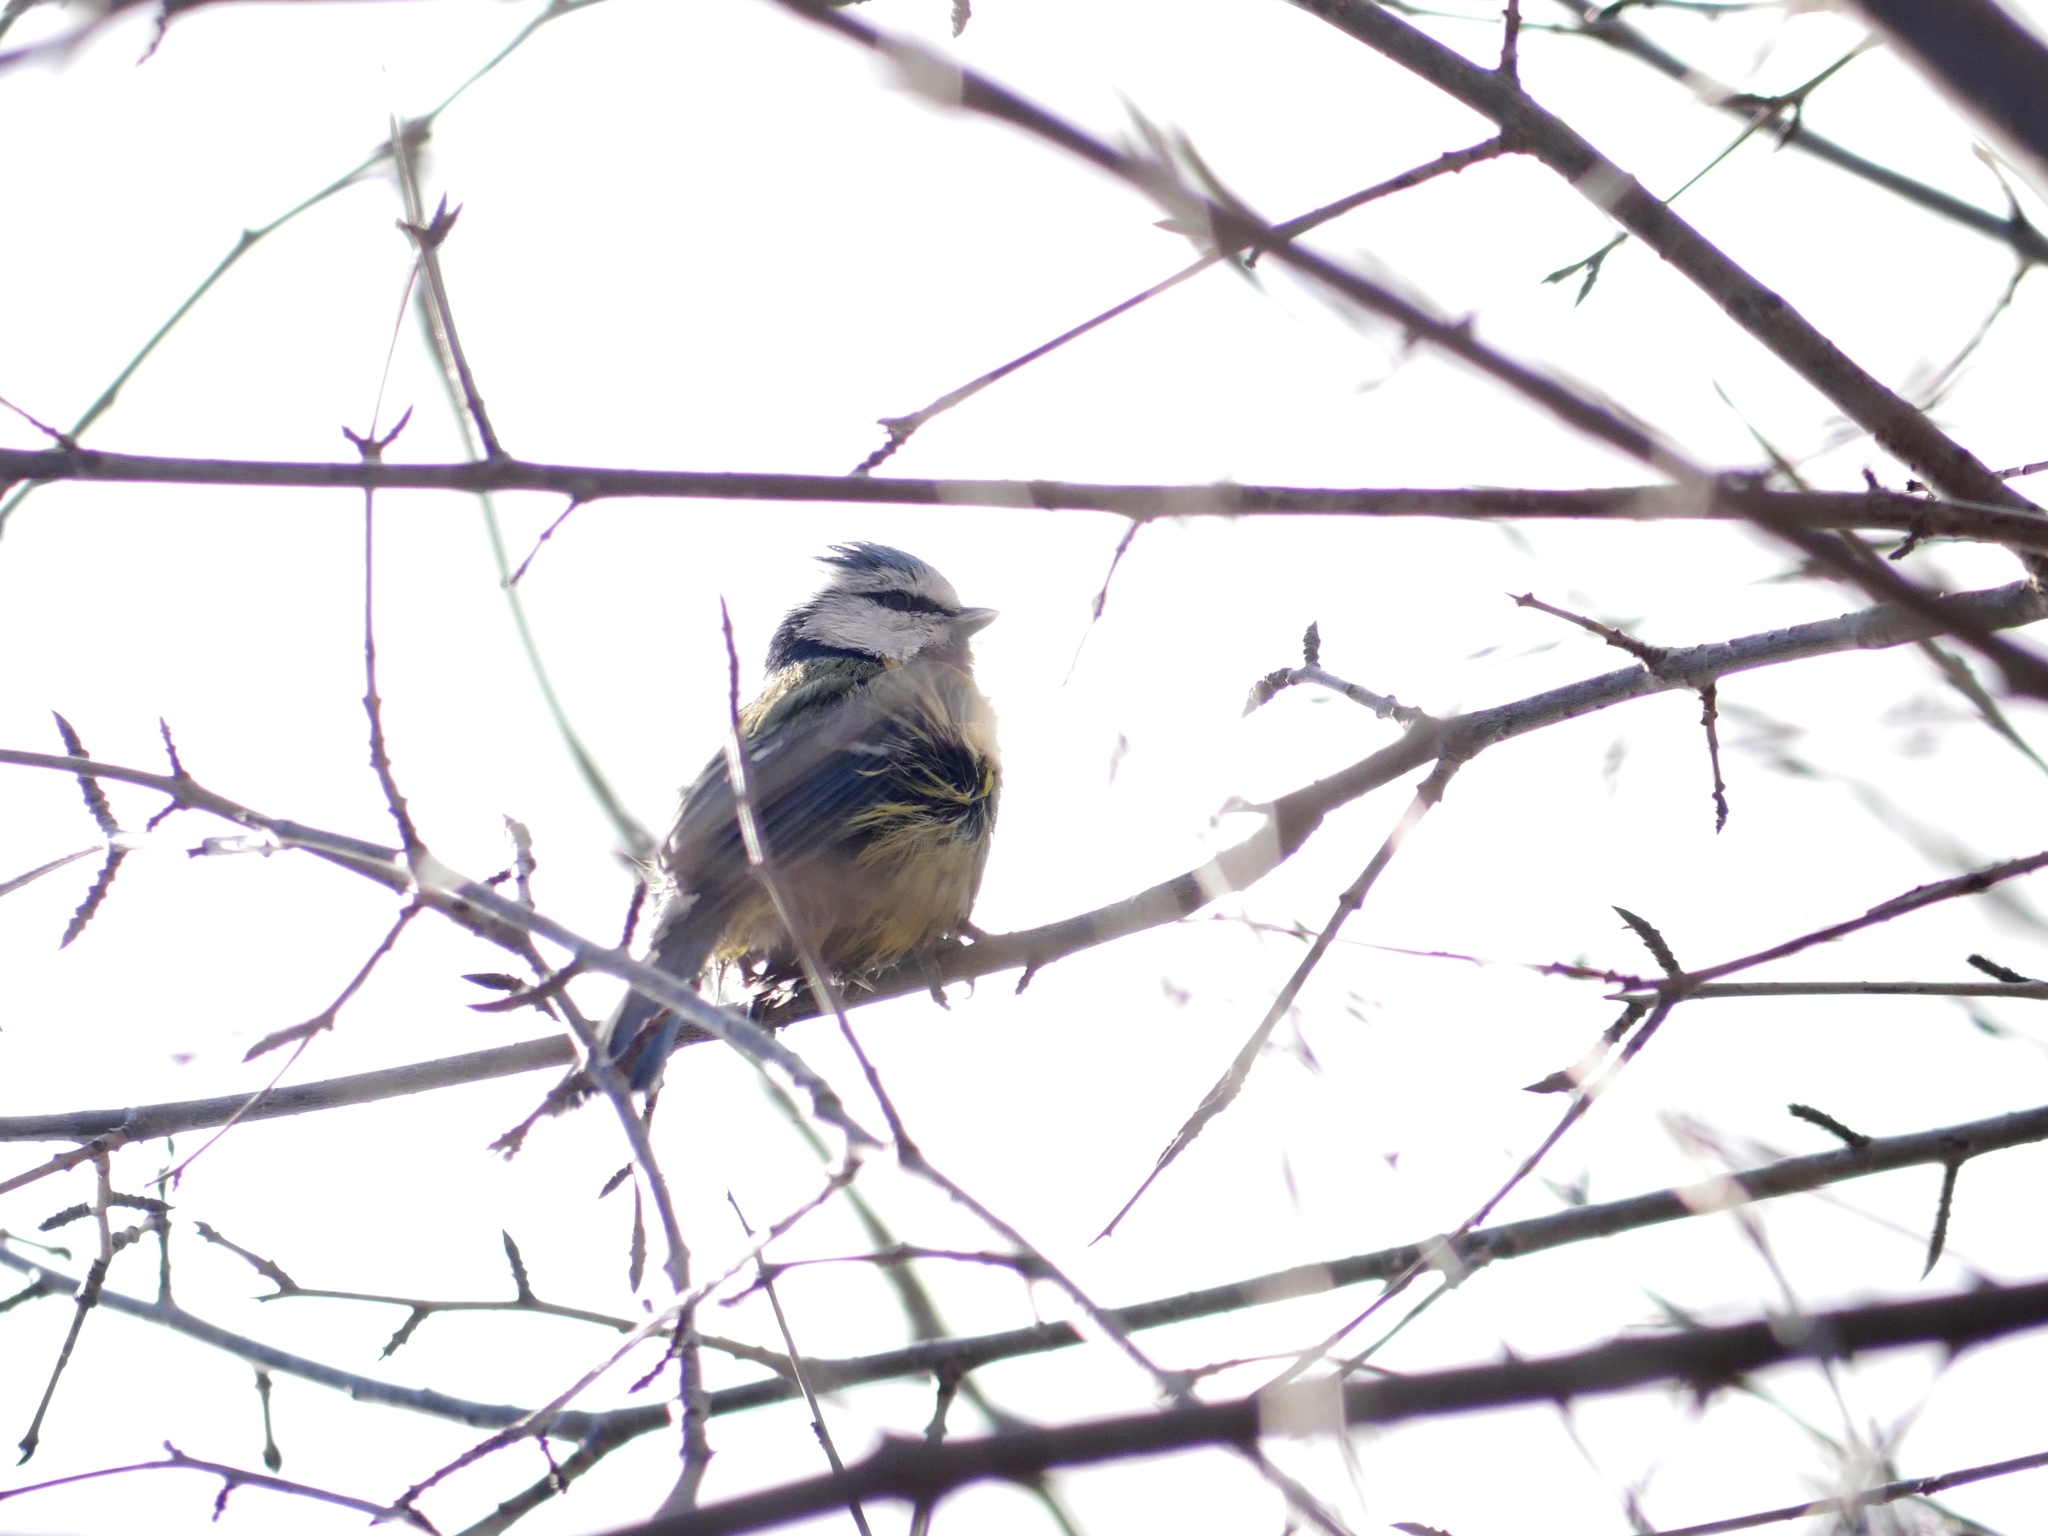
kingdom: Animalia
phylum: Chordata
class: Aves
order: Passeriformes
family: Paridae
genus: Cyanistes
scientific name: Cyanistes caeruleus
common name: Eurasian blue tit
